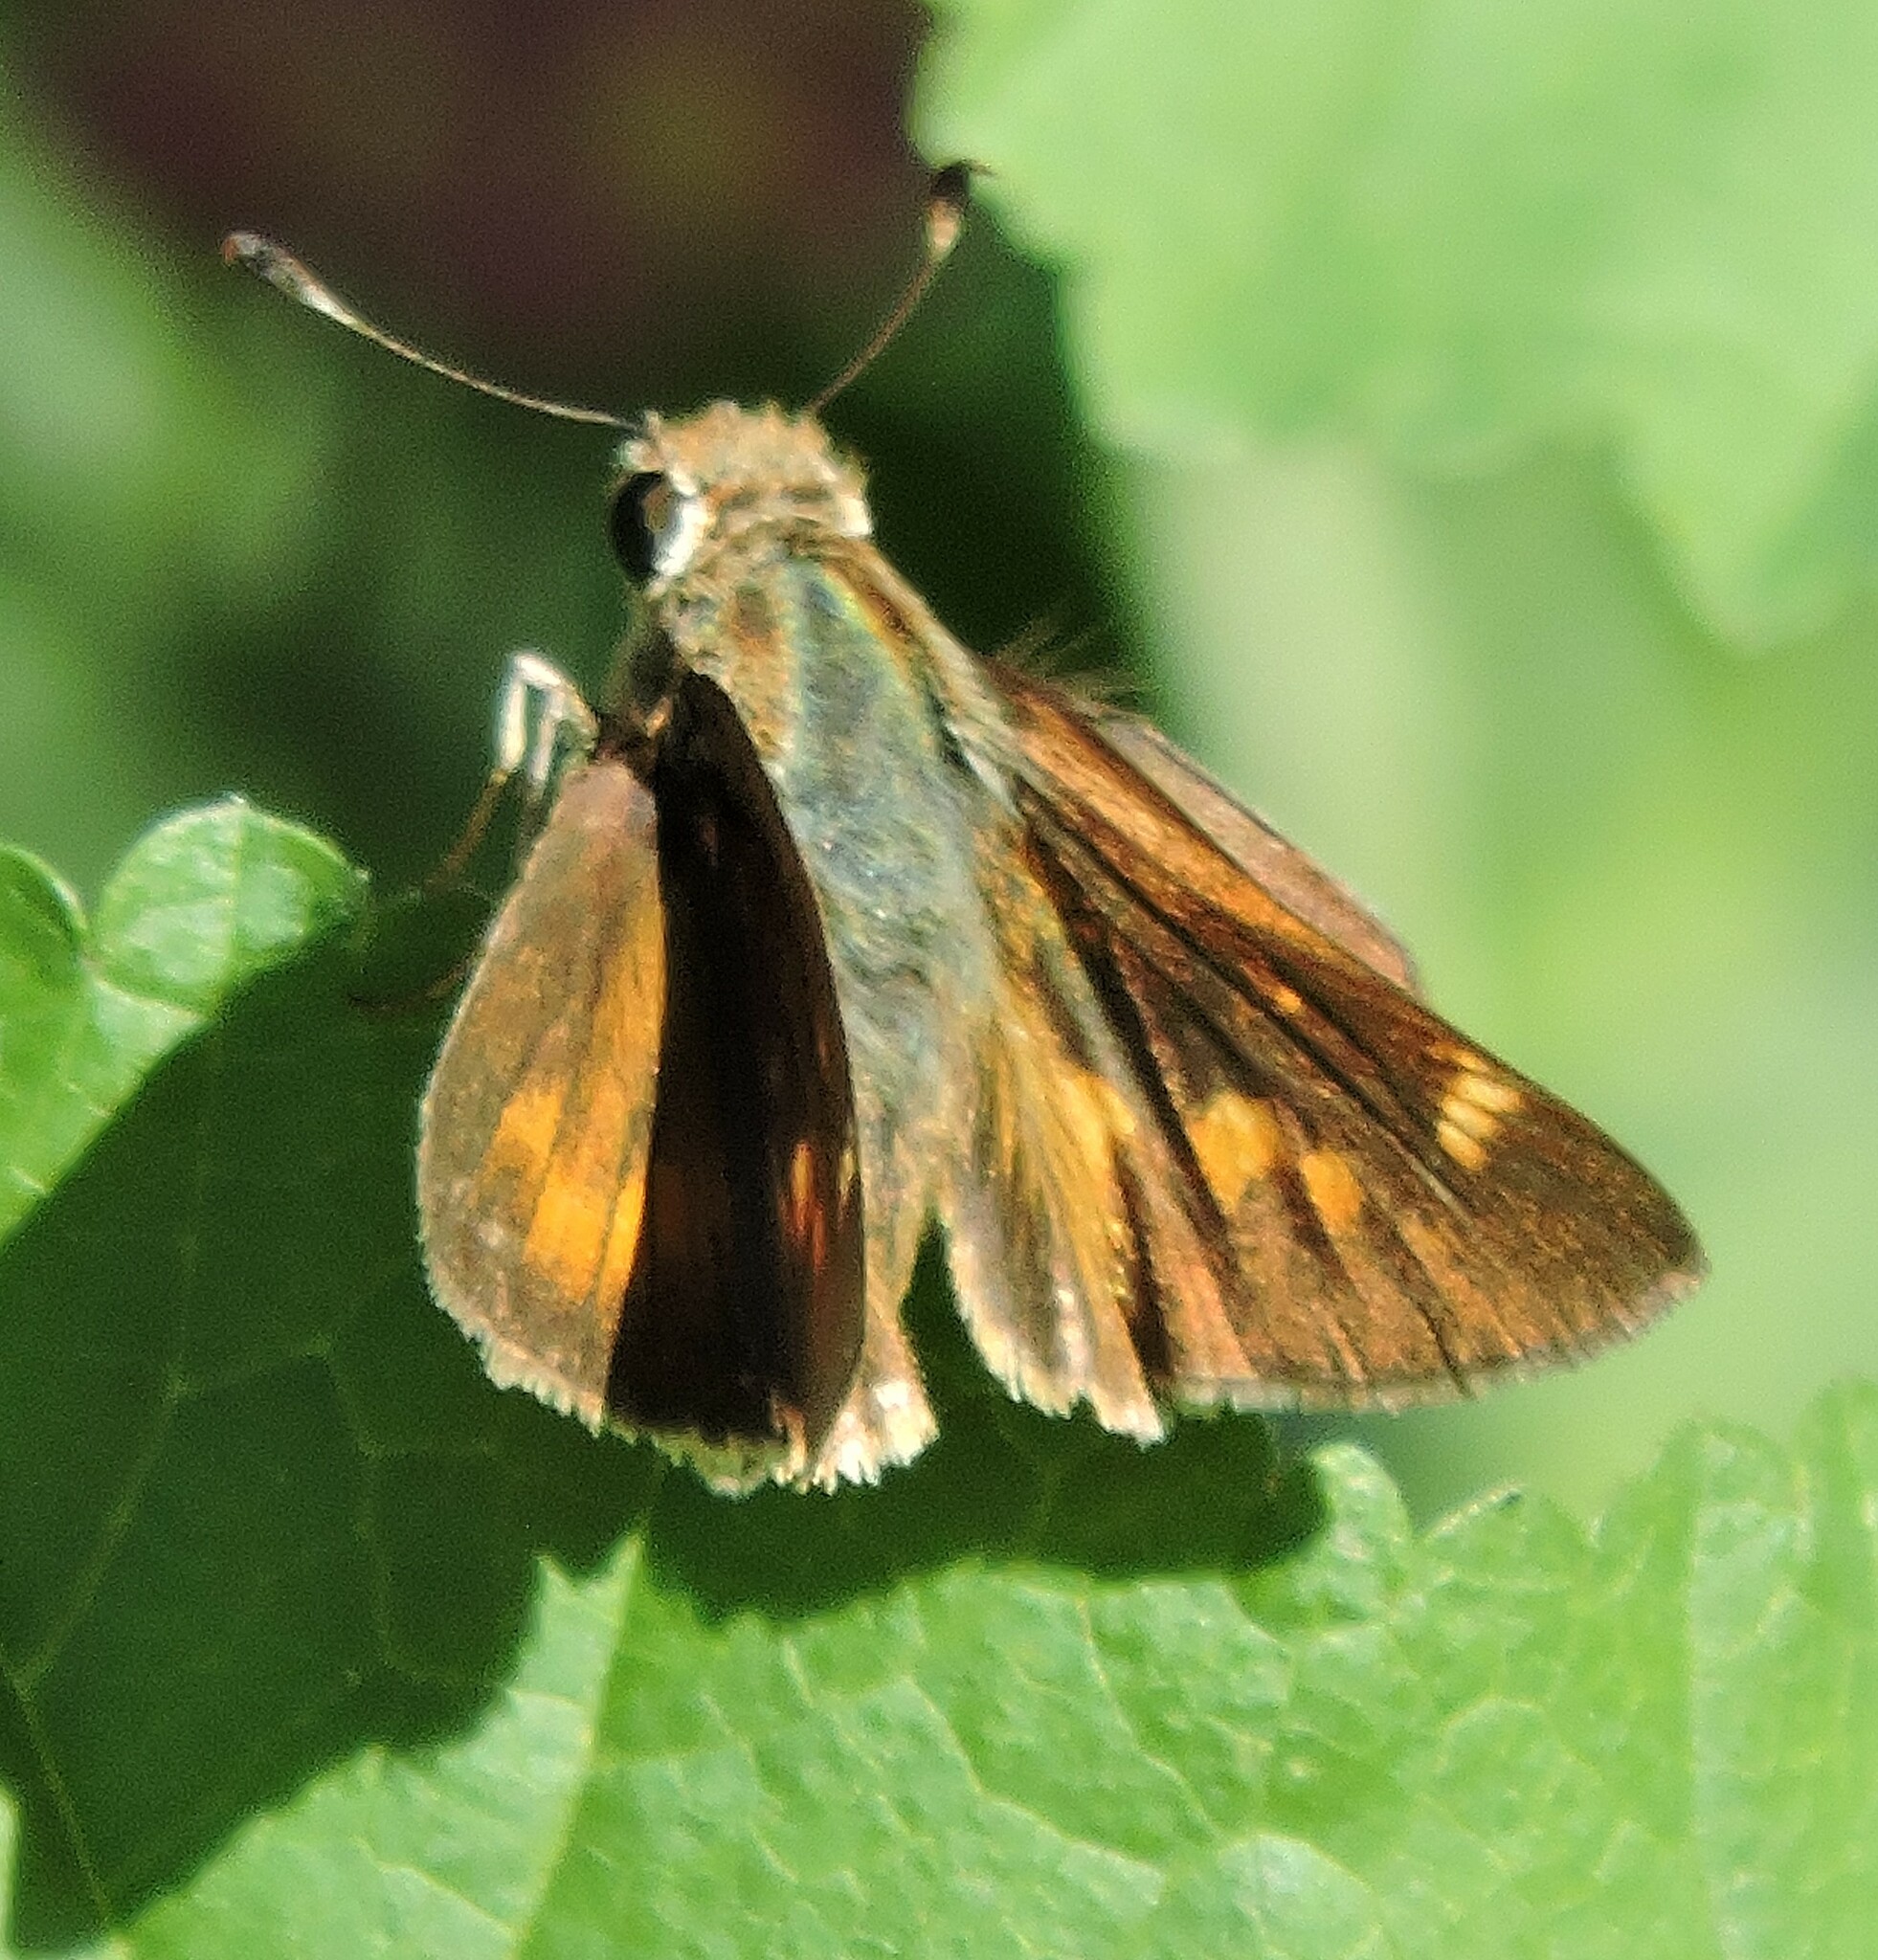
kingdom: Animalia
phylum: Arthropoda
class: Insecta
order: Lepidoptera
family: Hesperiidae
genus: Lon
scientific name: Lon melane
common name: Umber skipper
